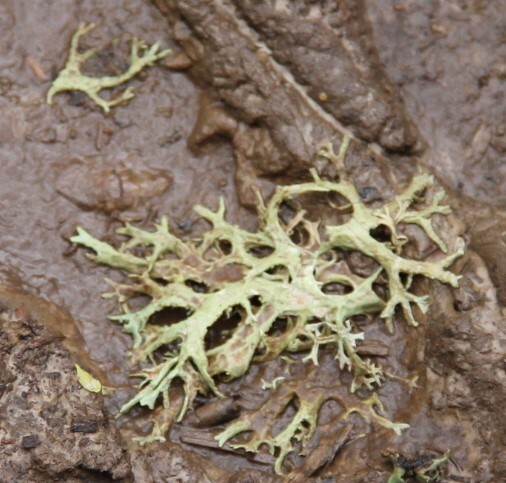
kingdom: Fungi
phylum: Ascomycota
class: Lecanoromycetes
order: Lecanorales
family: Parmeliaceae
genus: Evernia
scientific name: Evernia prunastri
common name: Oak moss
